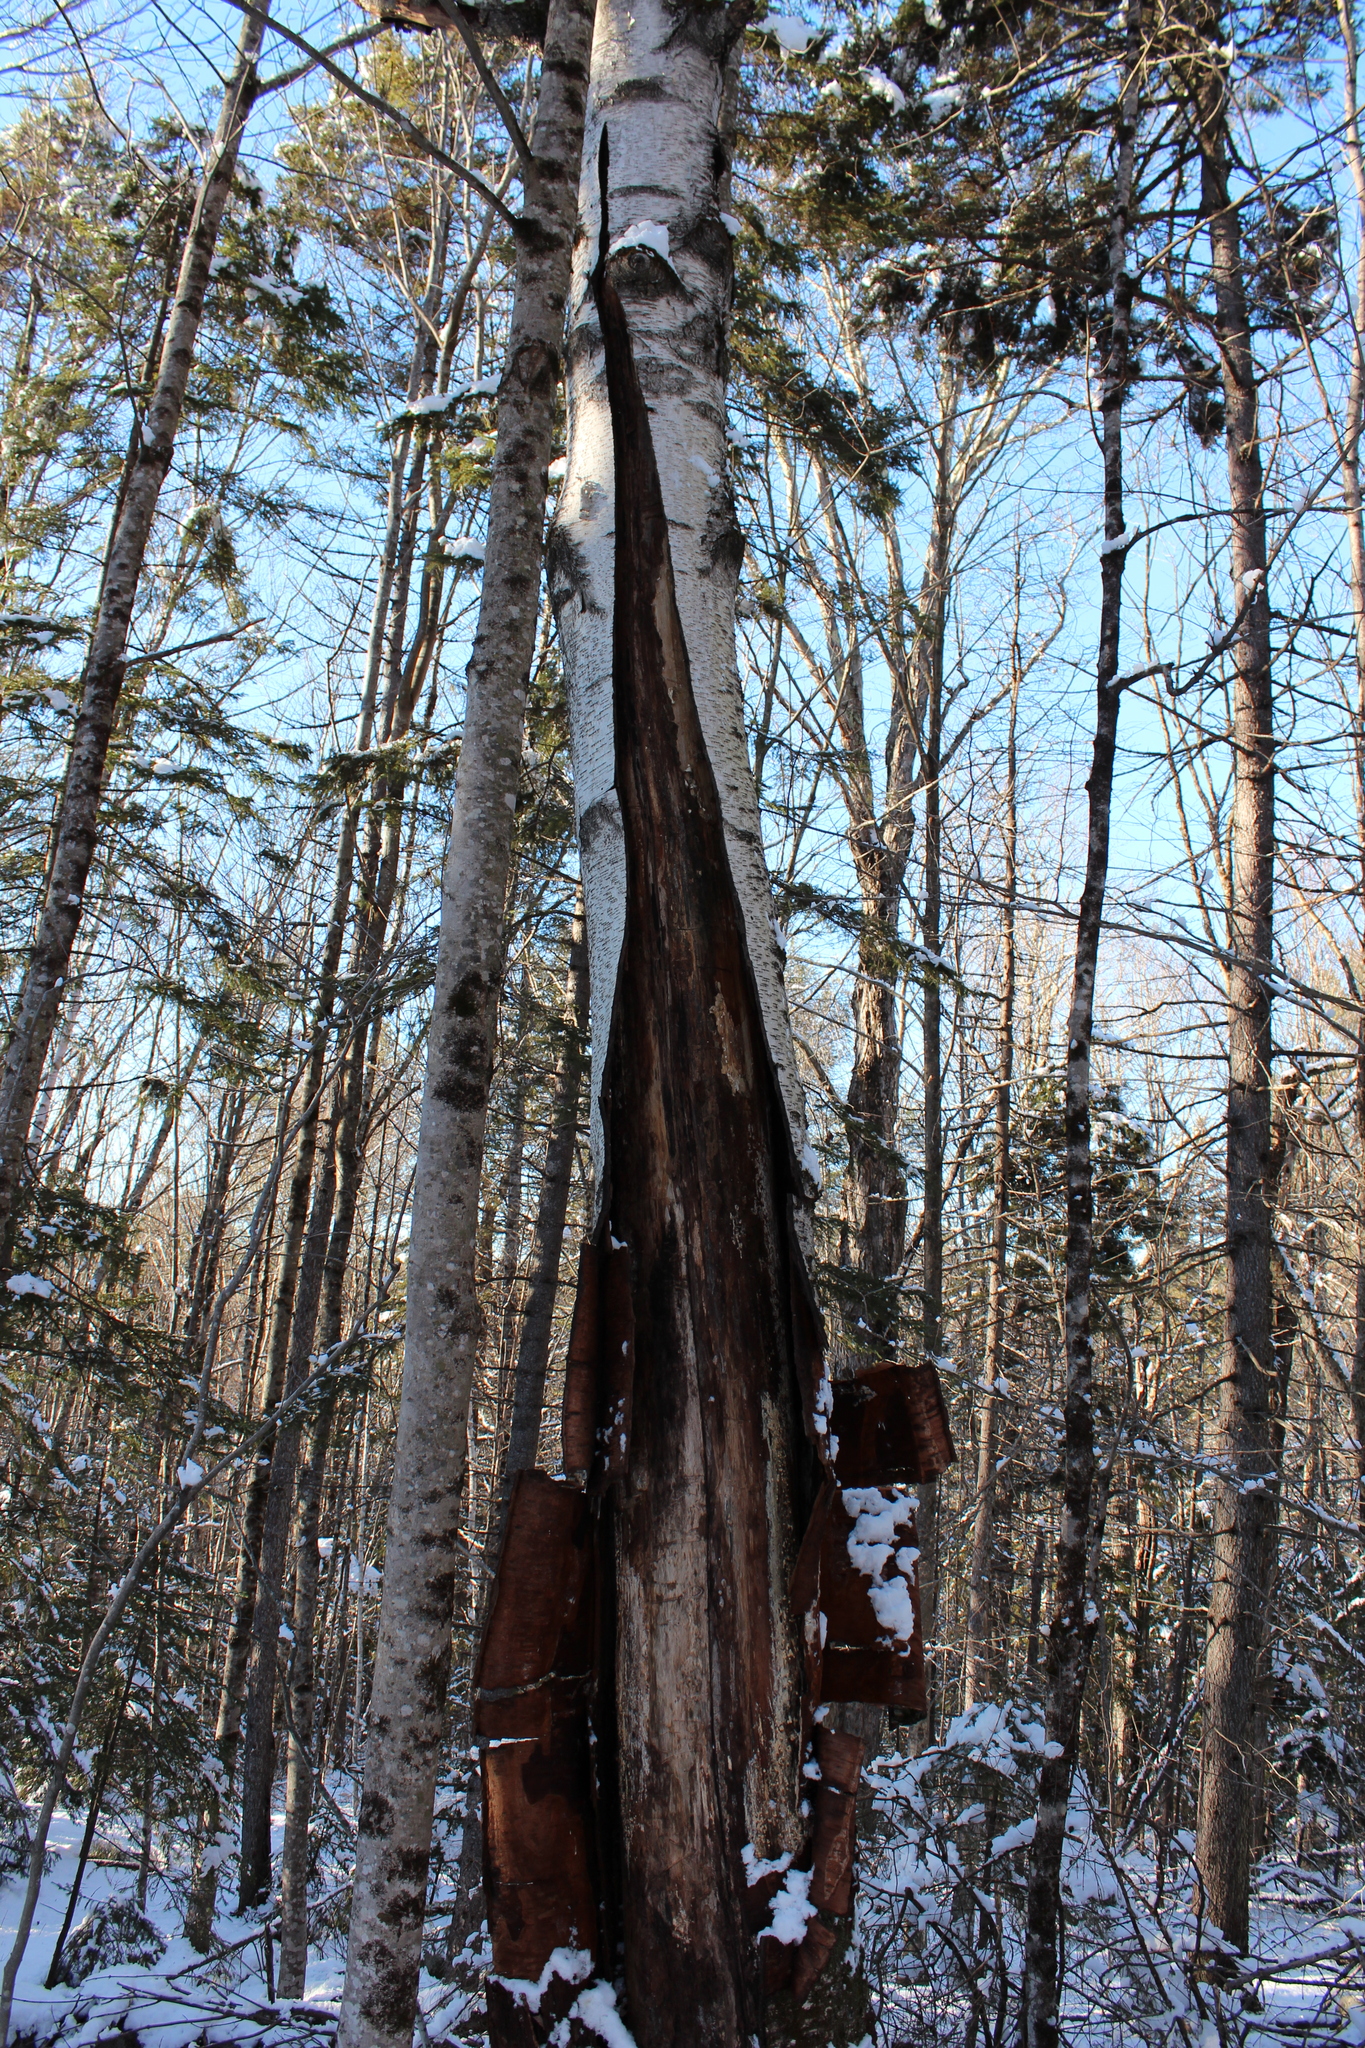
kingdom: Plantae
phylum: Tracheophyta
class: Magnoliopsida
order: Fagales
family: Betulaceae
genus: Betula
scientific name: Betula papyrifera
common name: Paper birch
